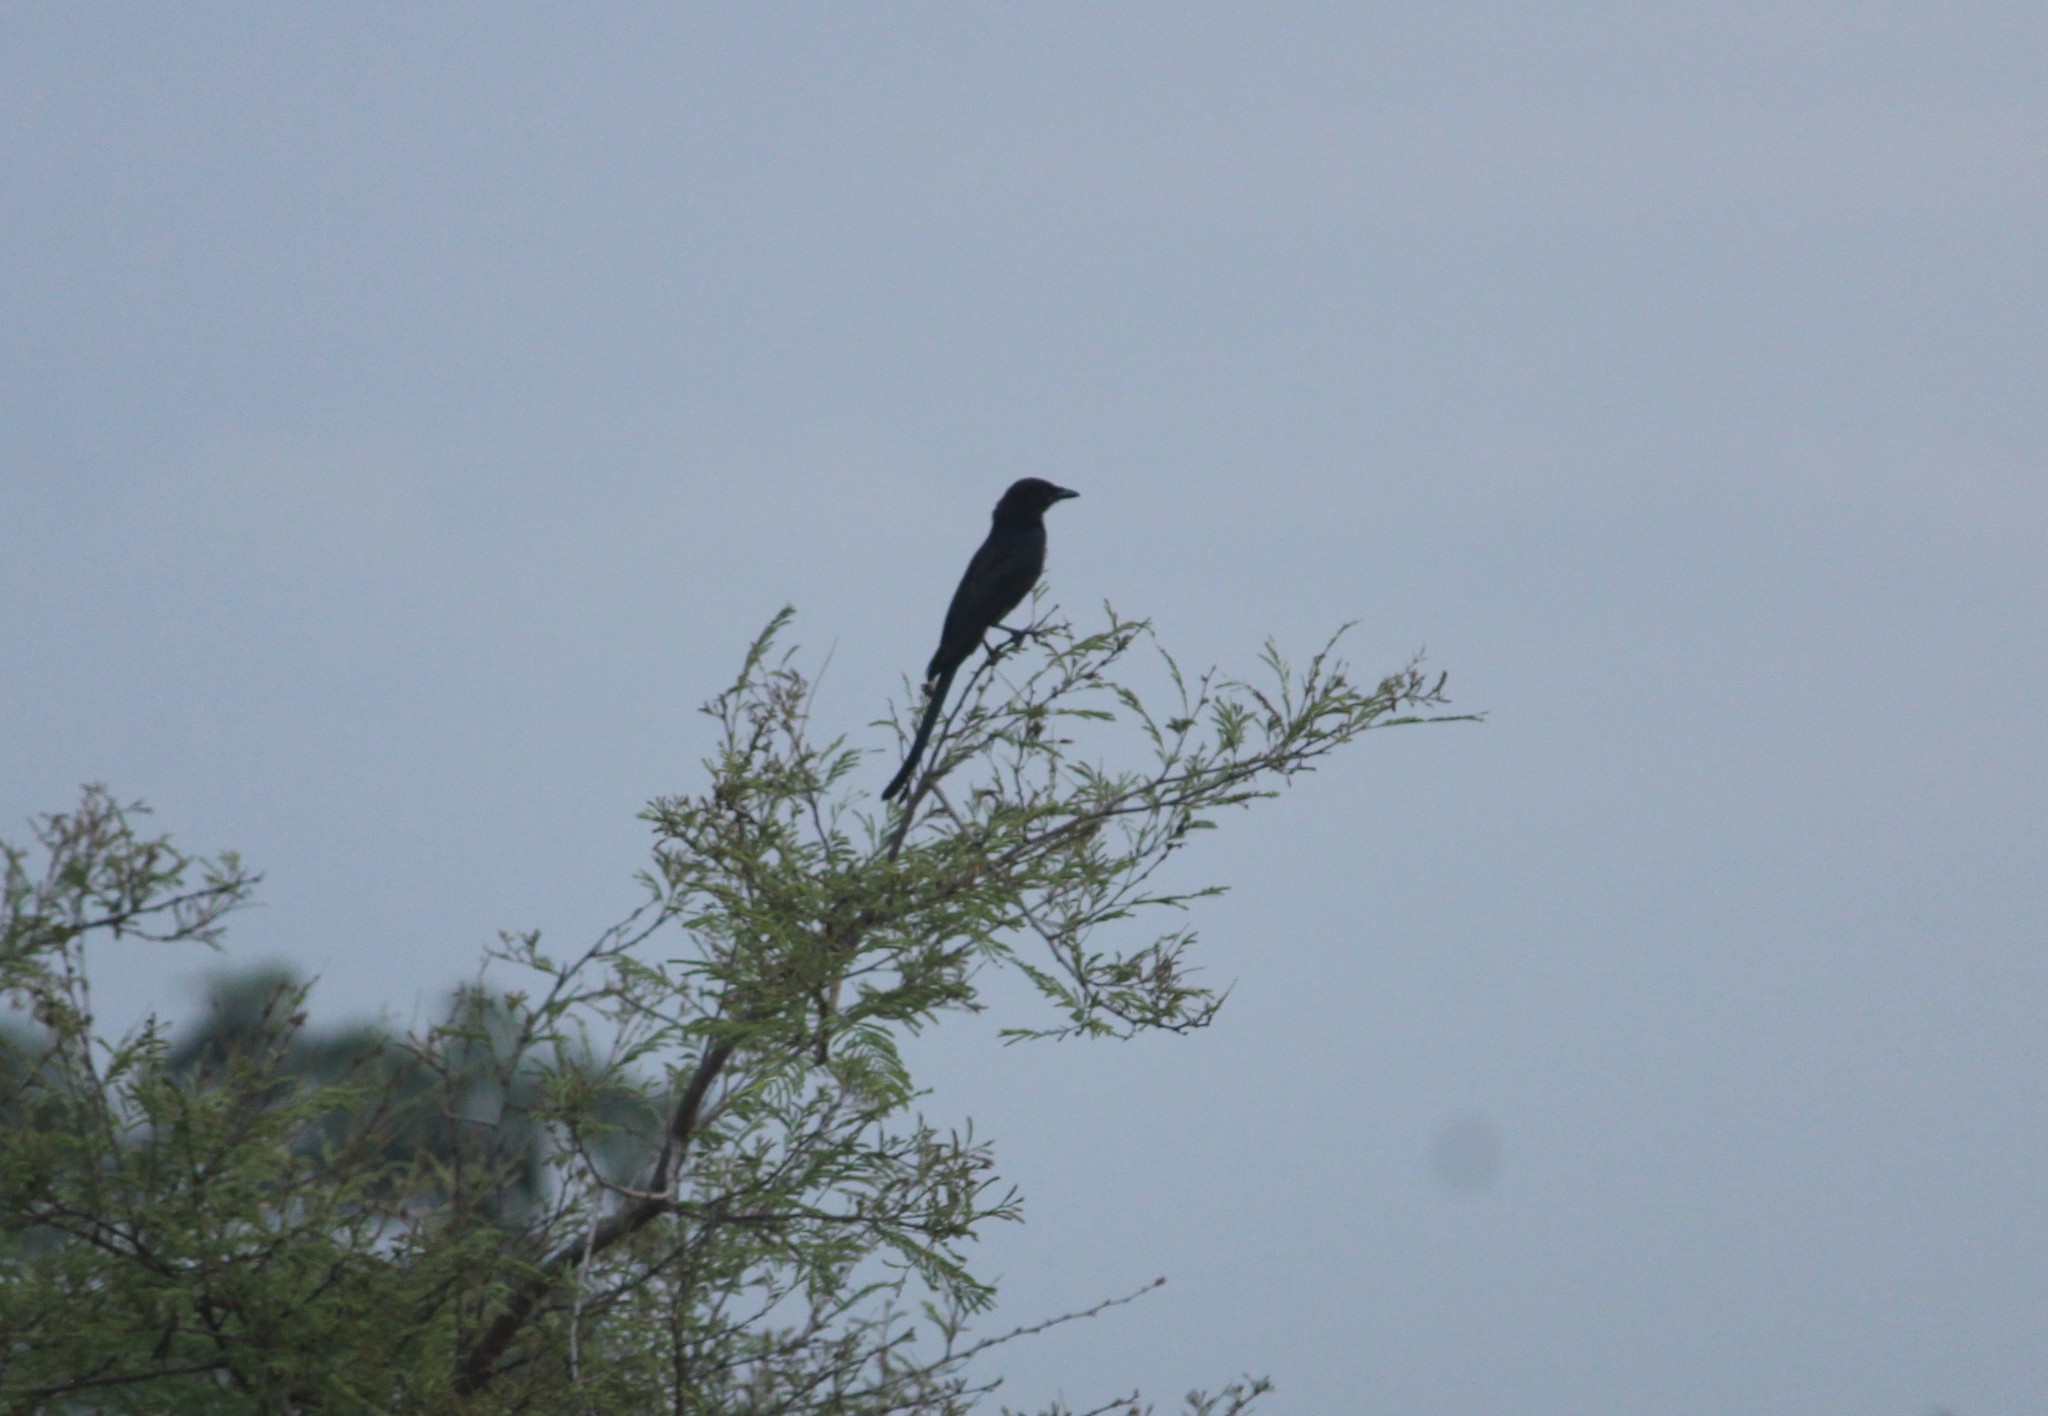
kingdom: Animalia
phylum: Chordata
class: Aves
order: Passeriformes
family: Dicruridae
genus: Dicrurus
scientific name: Dicrurus macrocercus
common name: Black drongo
